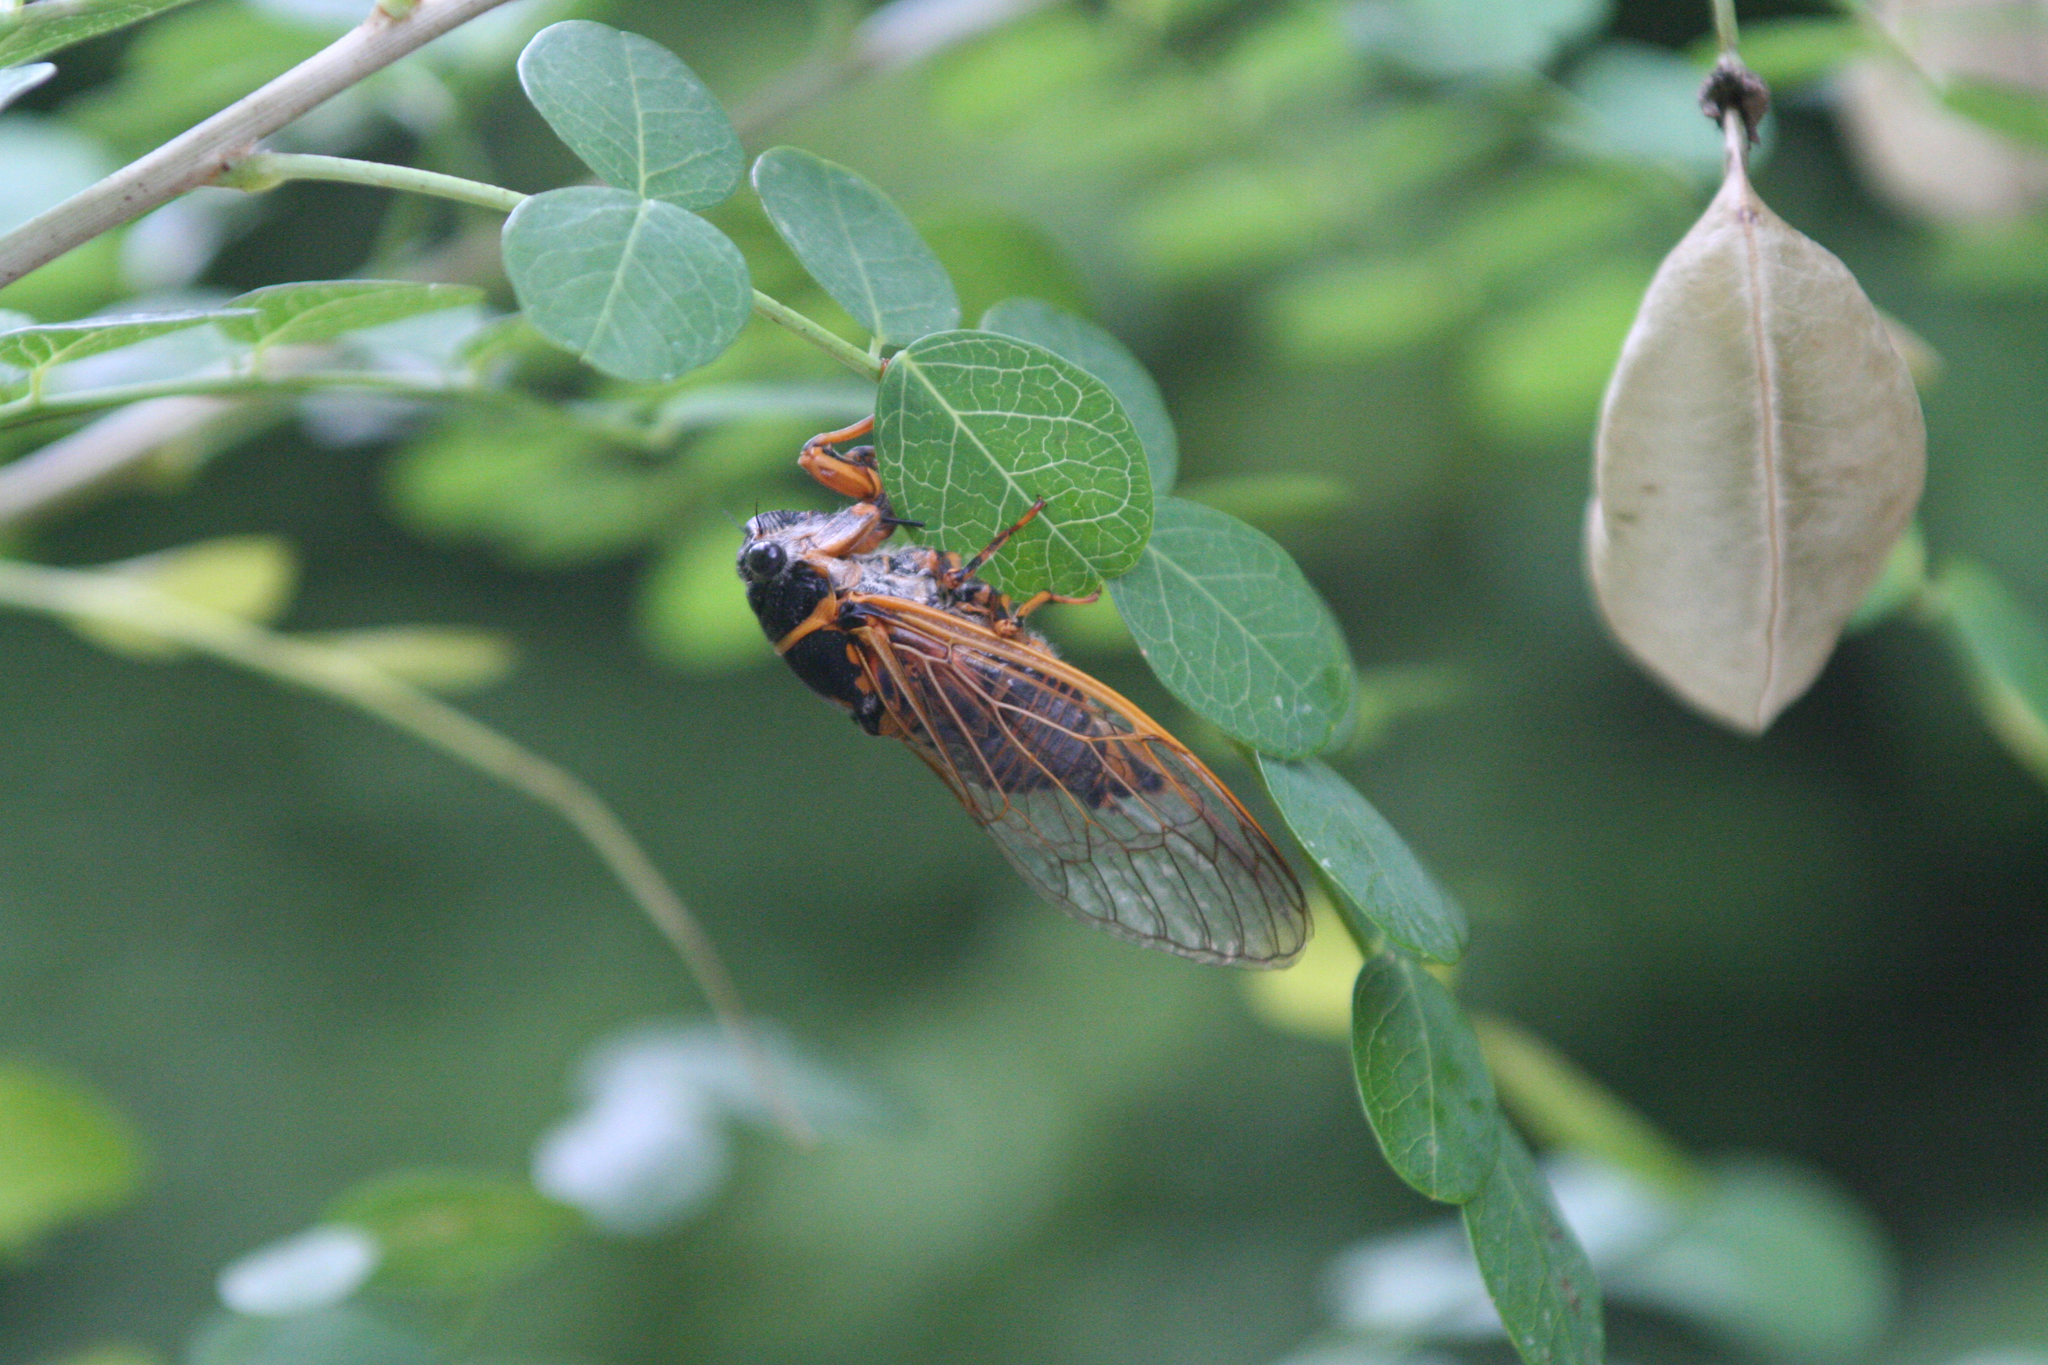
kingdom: Animalia
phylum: Arthropoda
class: Insecta
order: Hemiptera
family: Cicadidae
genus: Tibicina
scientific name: Tibicina steveni
